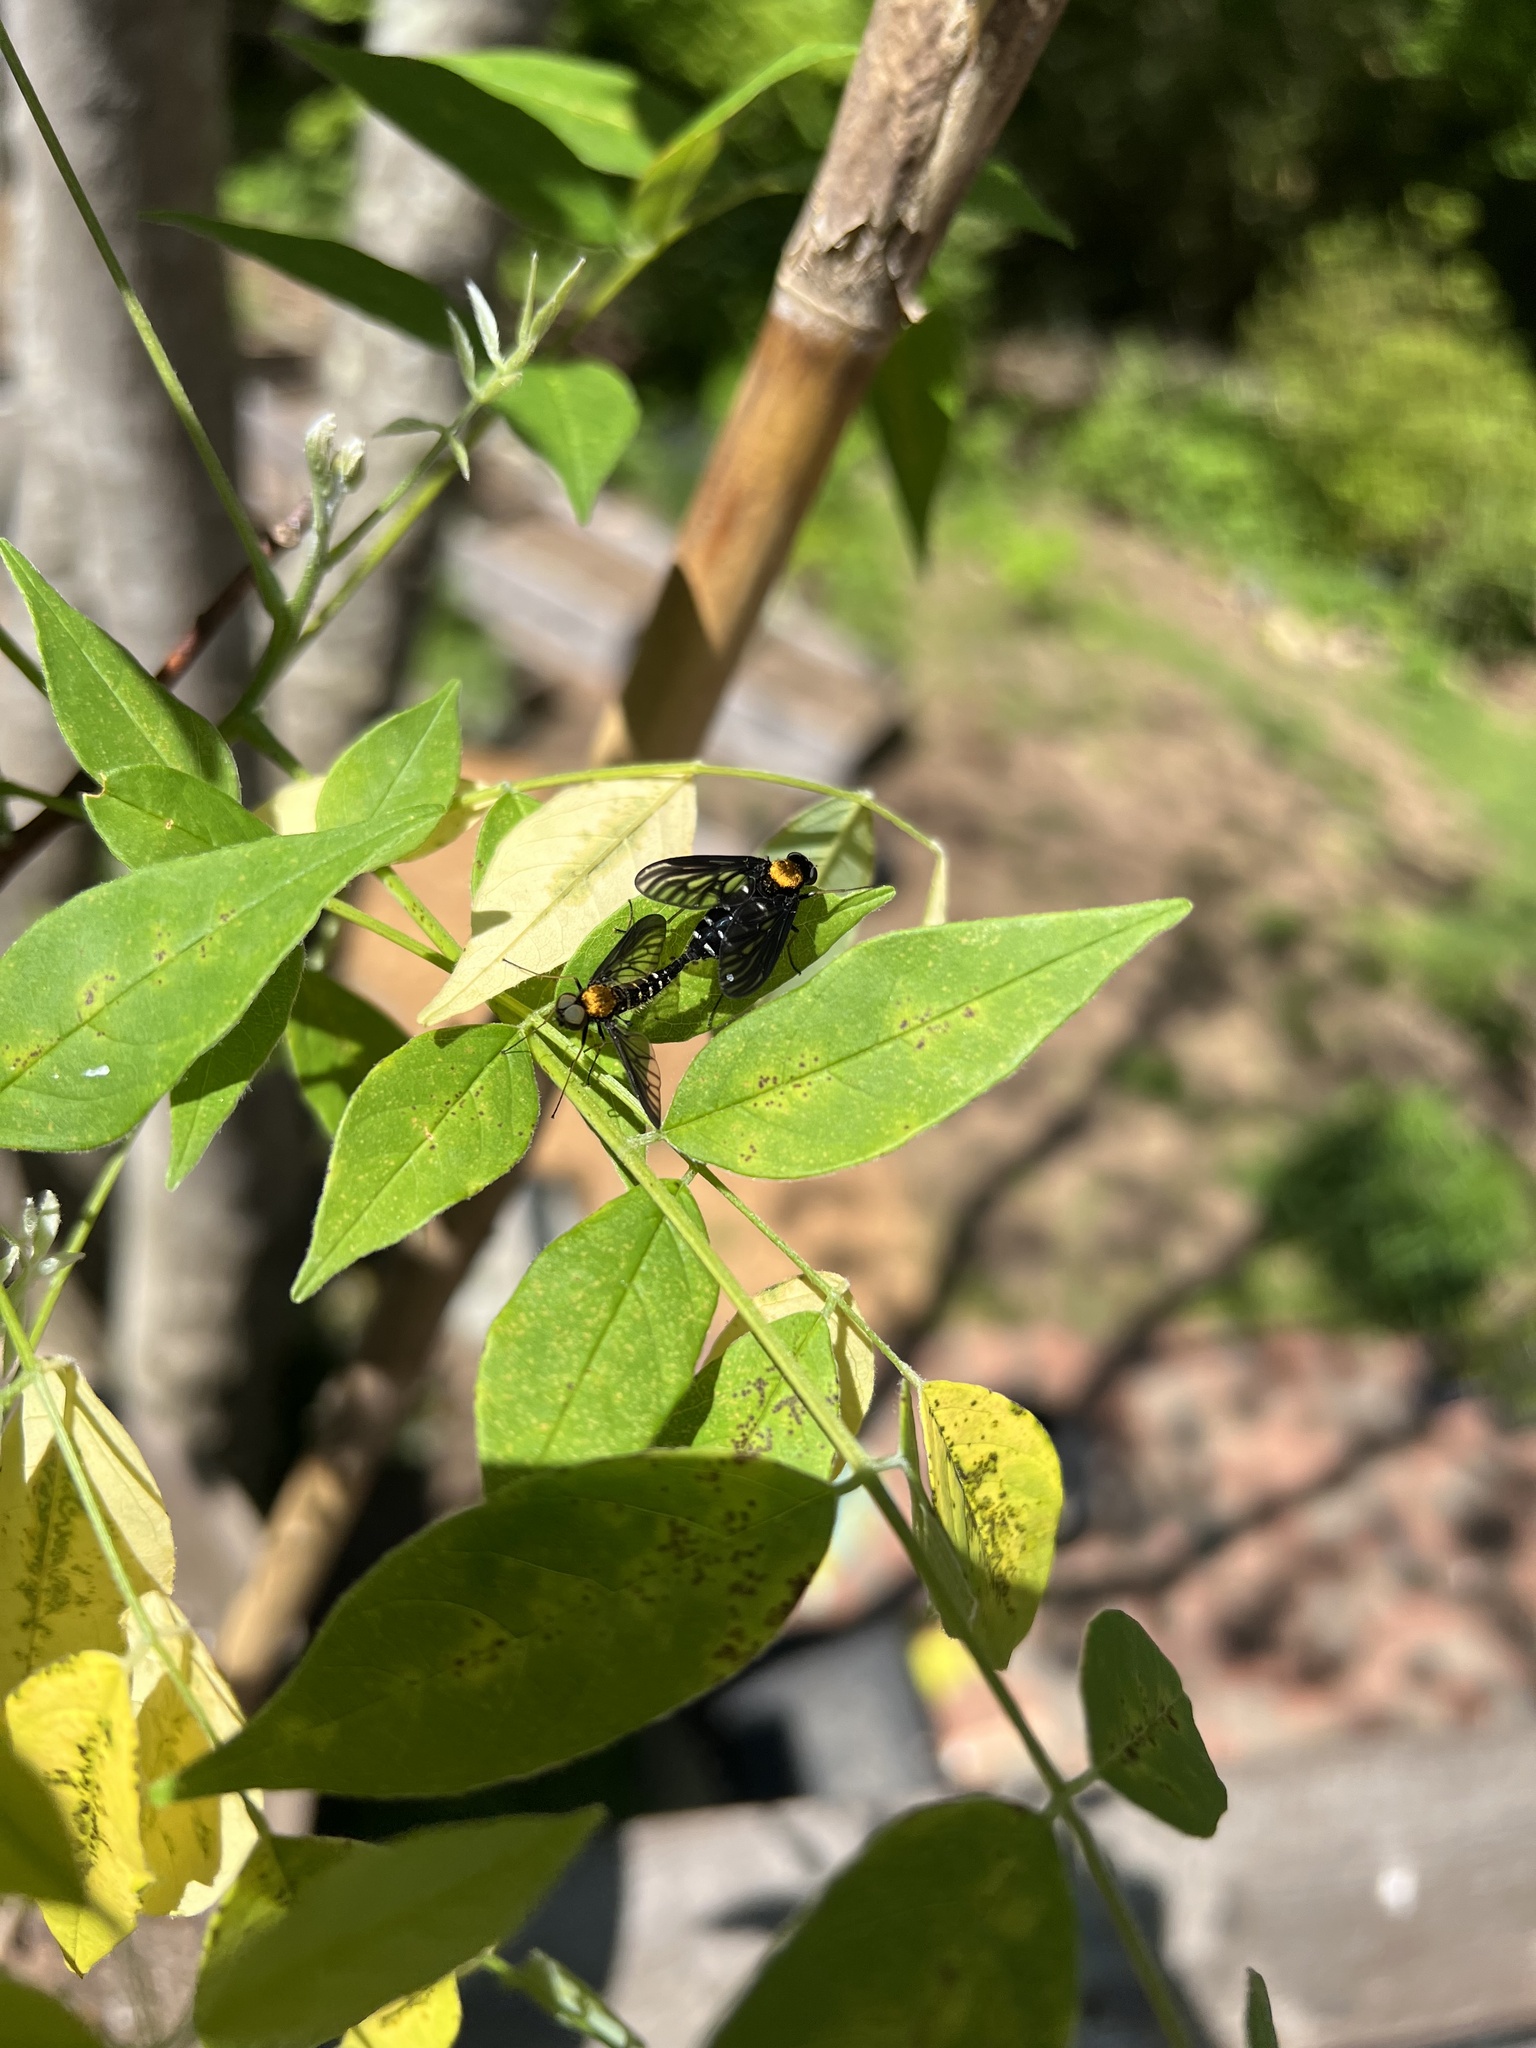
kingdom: Animalia
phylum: Arthropoda
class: Insecta
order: Diptera
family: Rhagionidae
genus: Chrysopilus
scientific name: Chrysopilus thoracicus
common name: Golden-backed snipe fly
